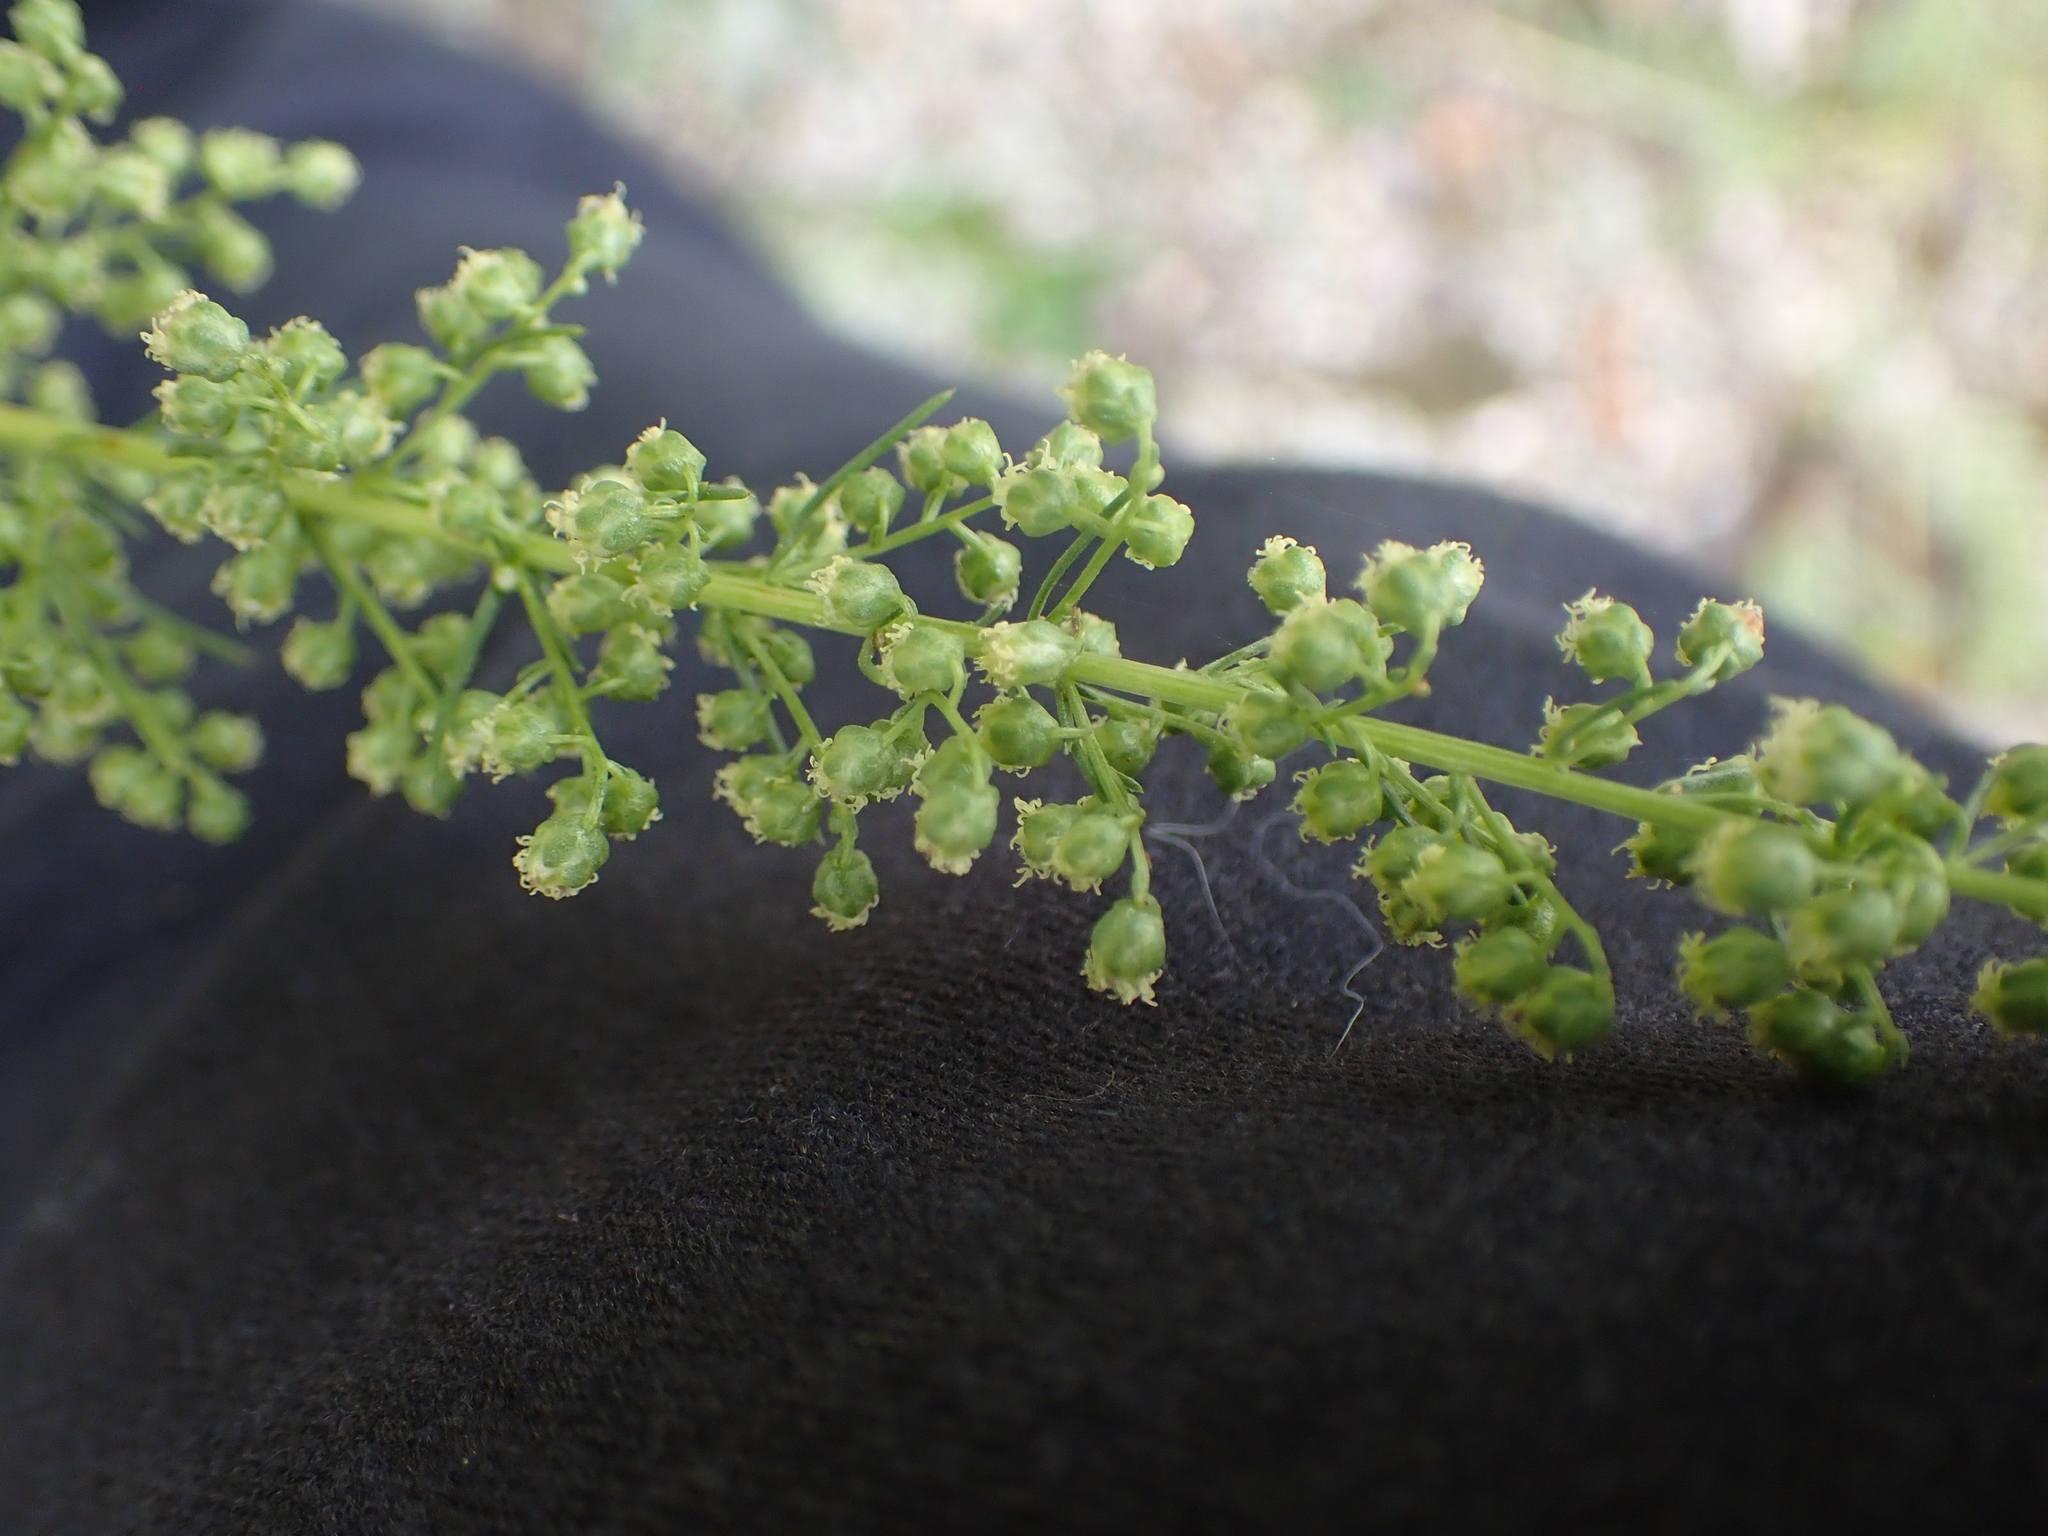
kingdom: Plantae
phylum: Tracheophyta
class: Magnoliopsida
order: Asterales
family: Asteraceae
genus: Artemisia
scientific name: Artemisia campestris
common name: Field wormwood
